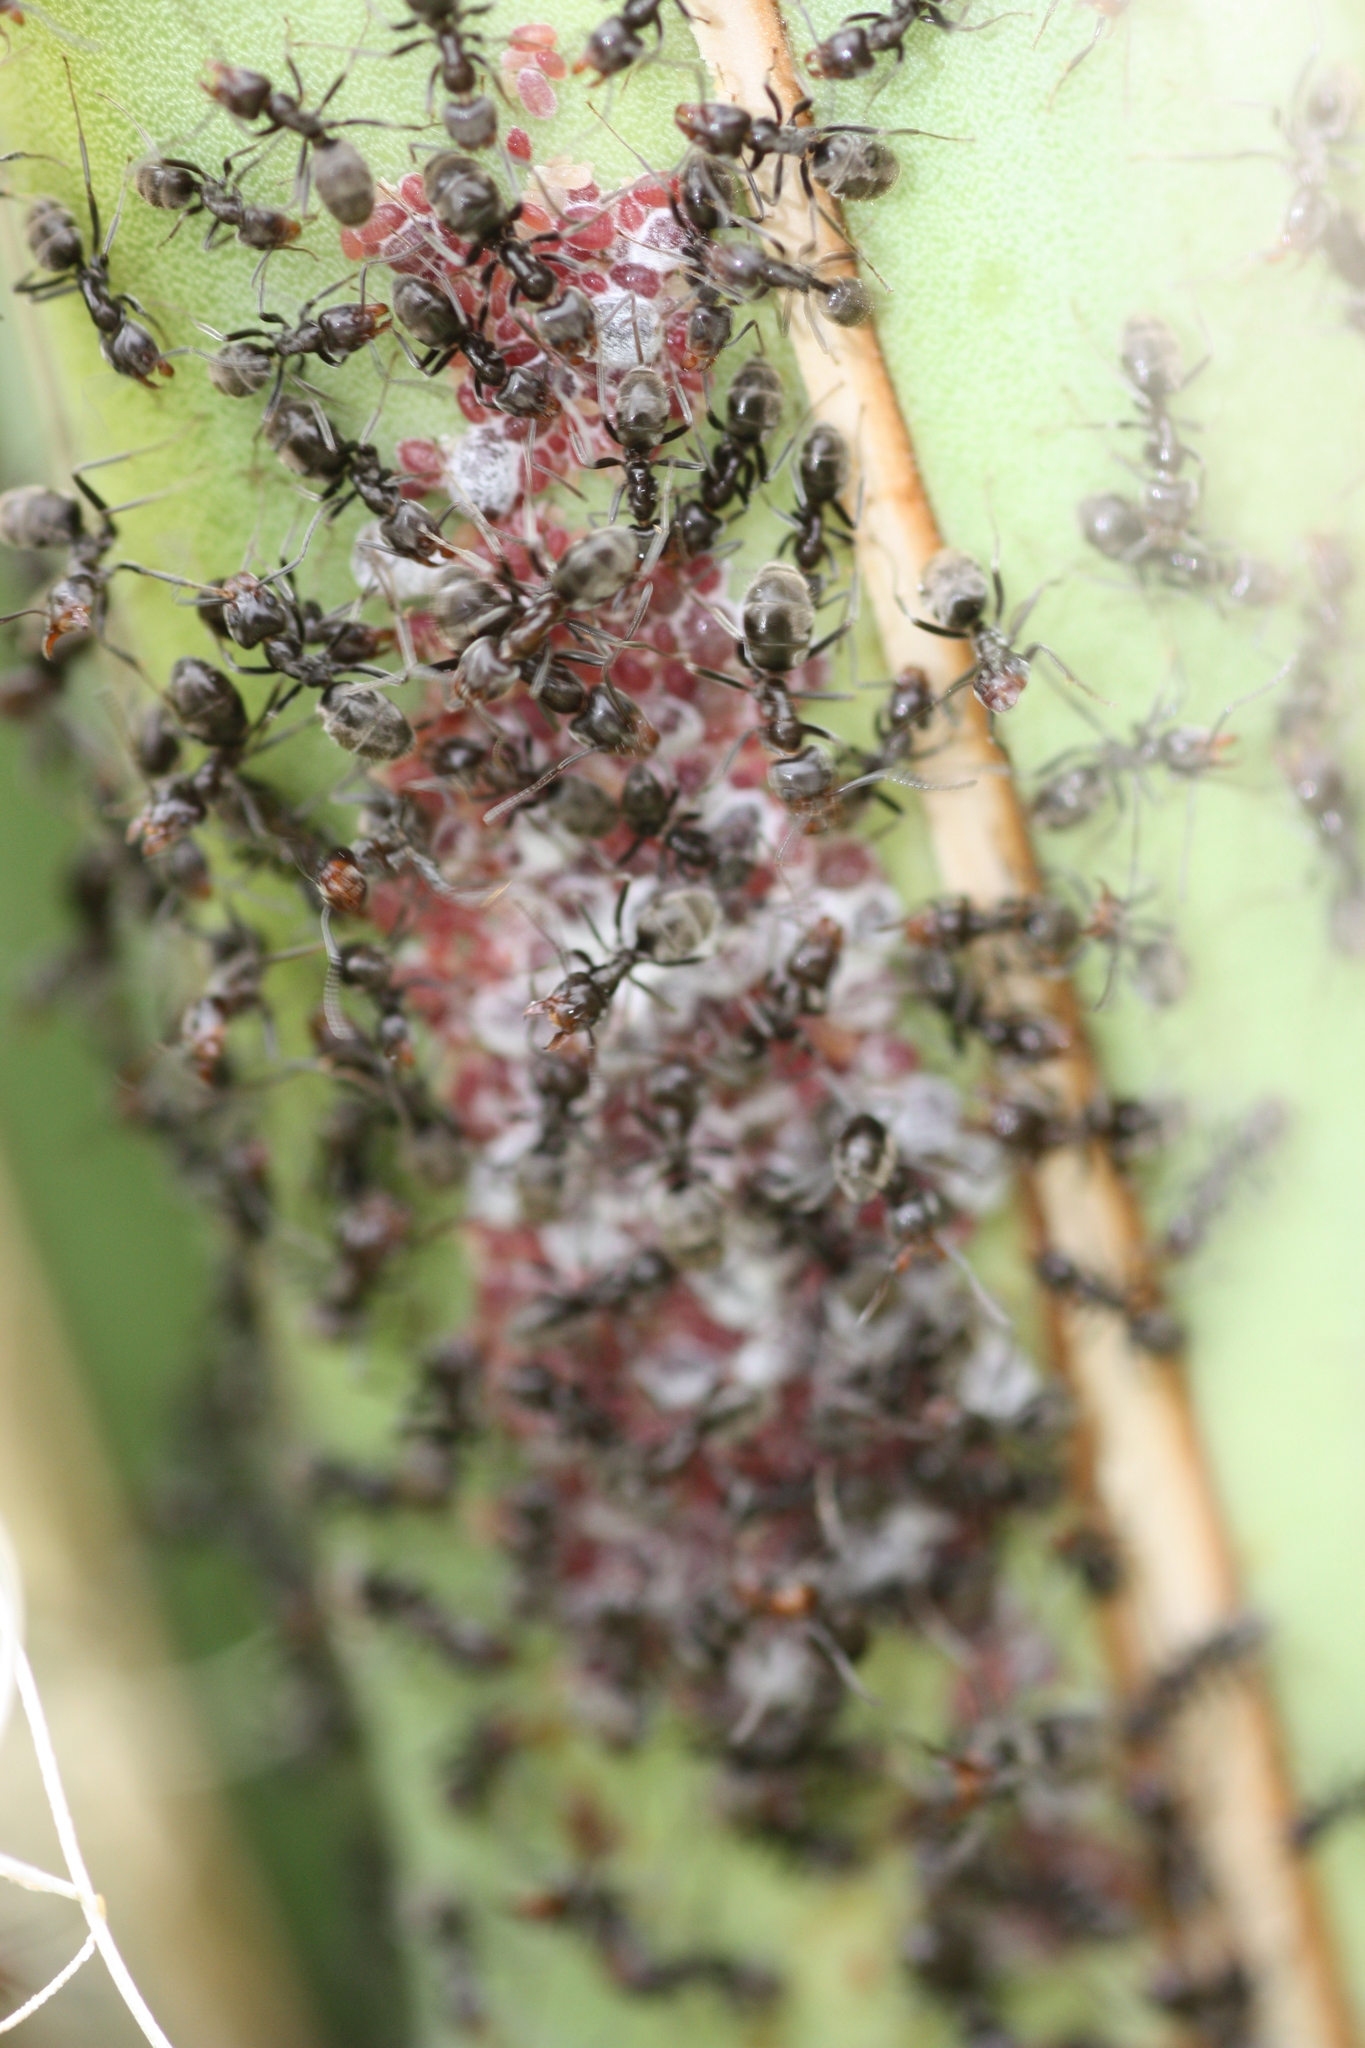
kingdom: Animalia
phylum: Arthropoda
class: Insecta
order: Hymenoptera
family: Formicidae
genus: Liometopum
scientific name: Liometopum luctuosum
